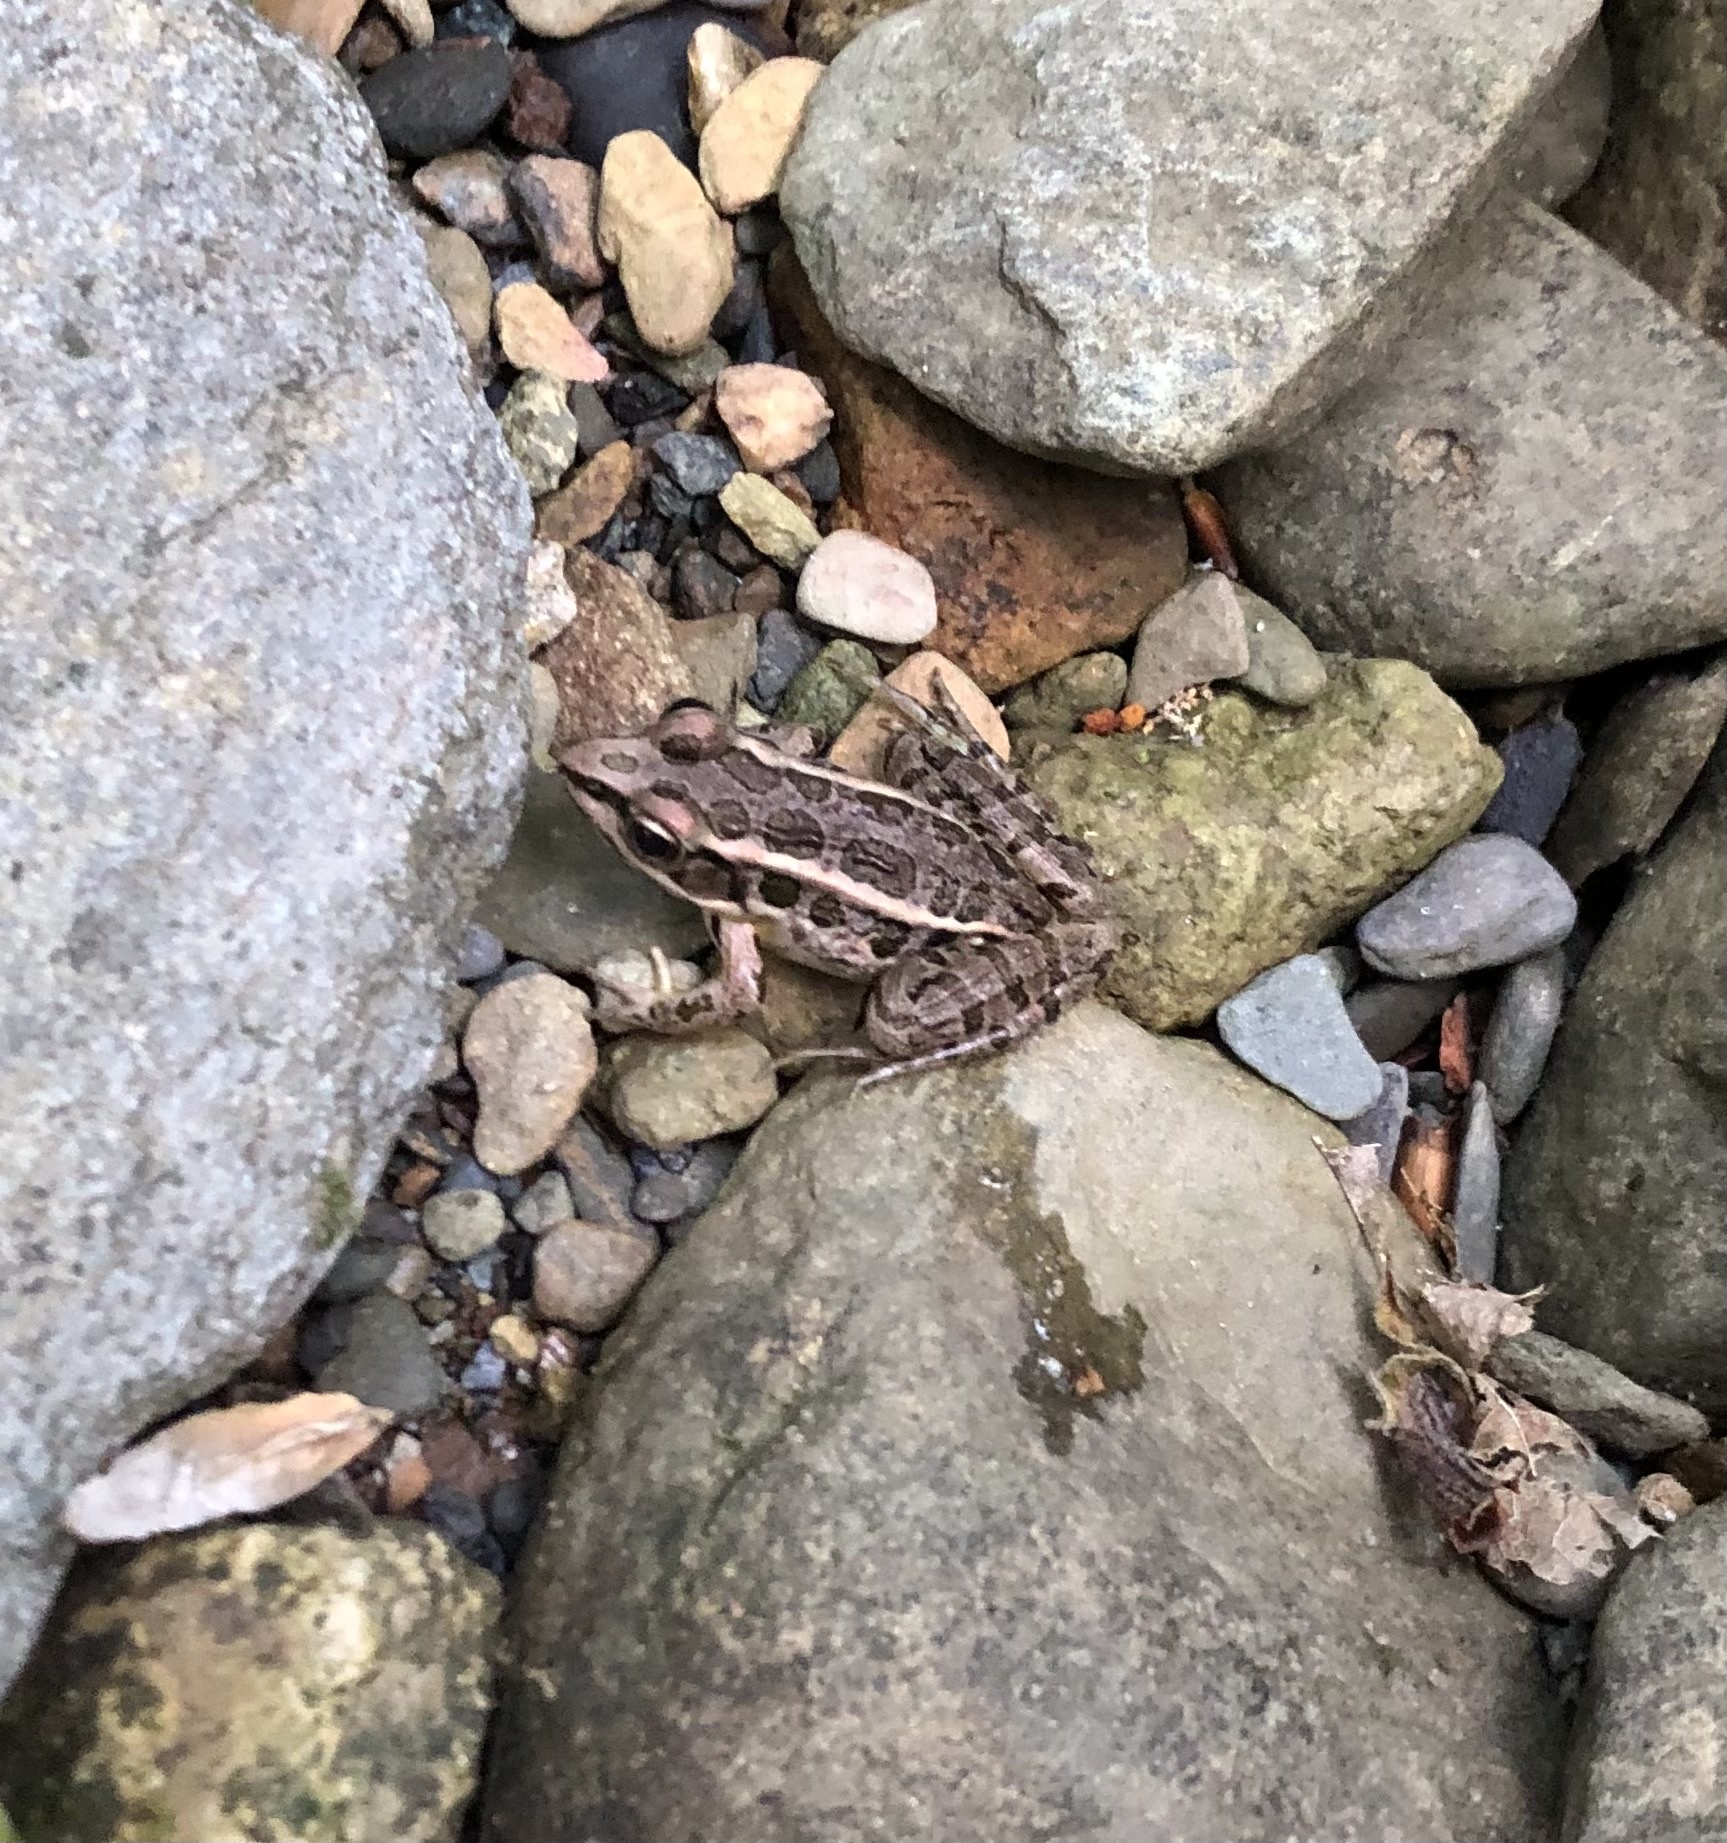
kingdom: Animalia
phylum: Chordata
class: Amphibia
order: Anura
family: Ranidae
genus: Lithobates
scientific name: Lithobates palustris
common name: Pickerel frog
